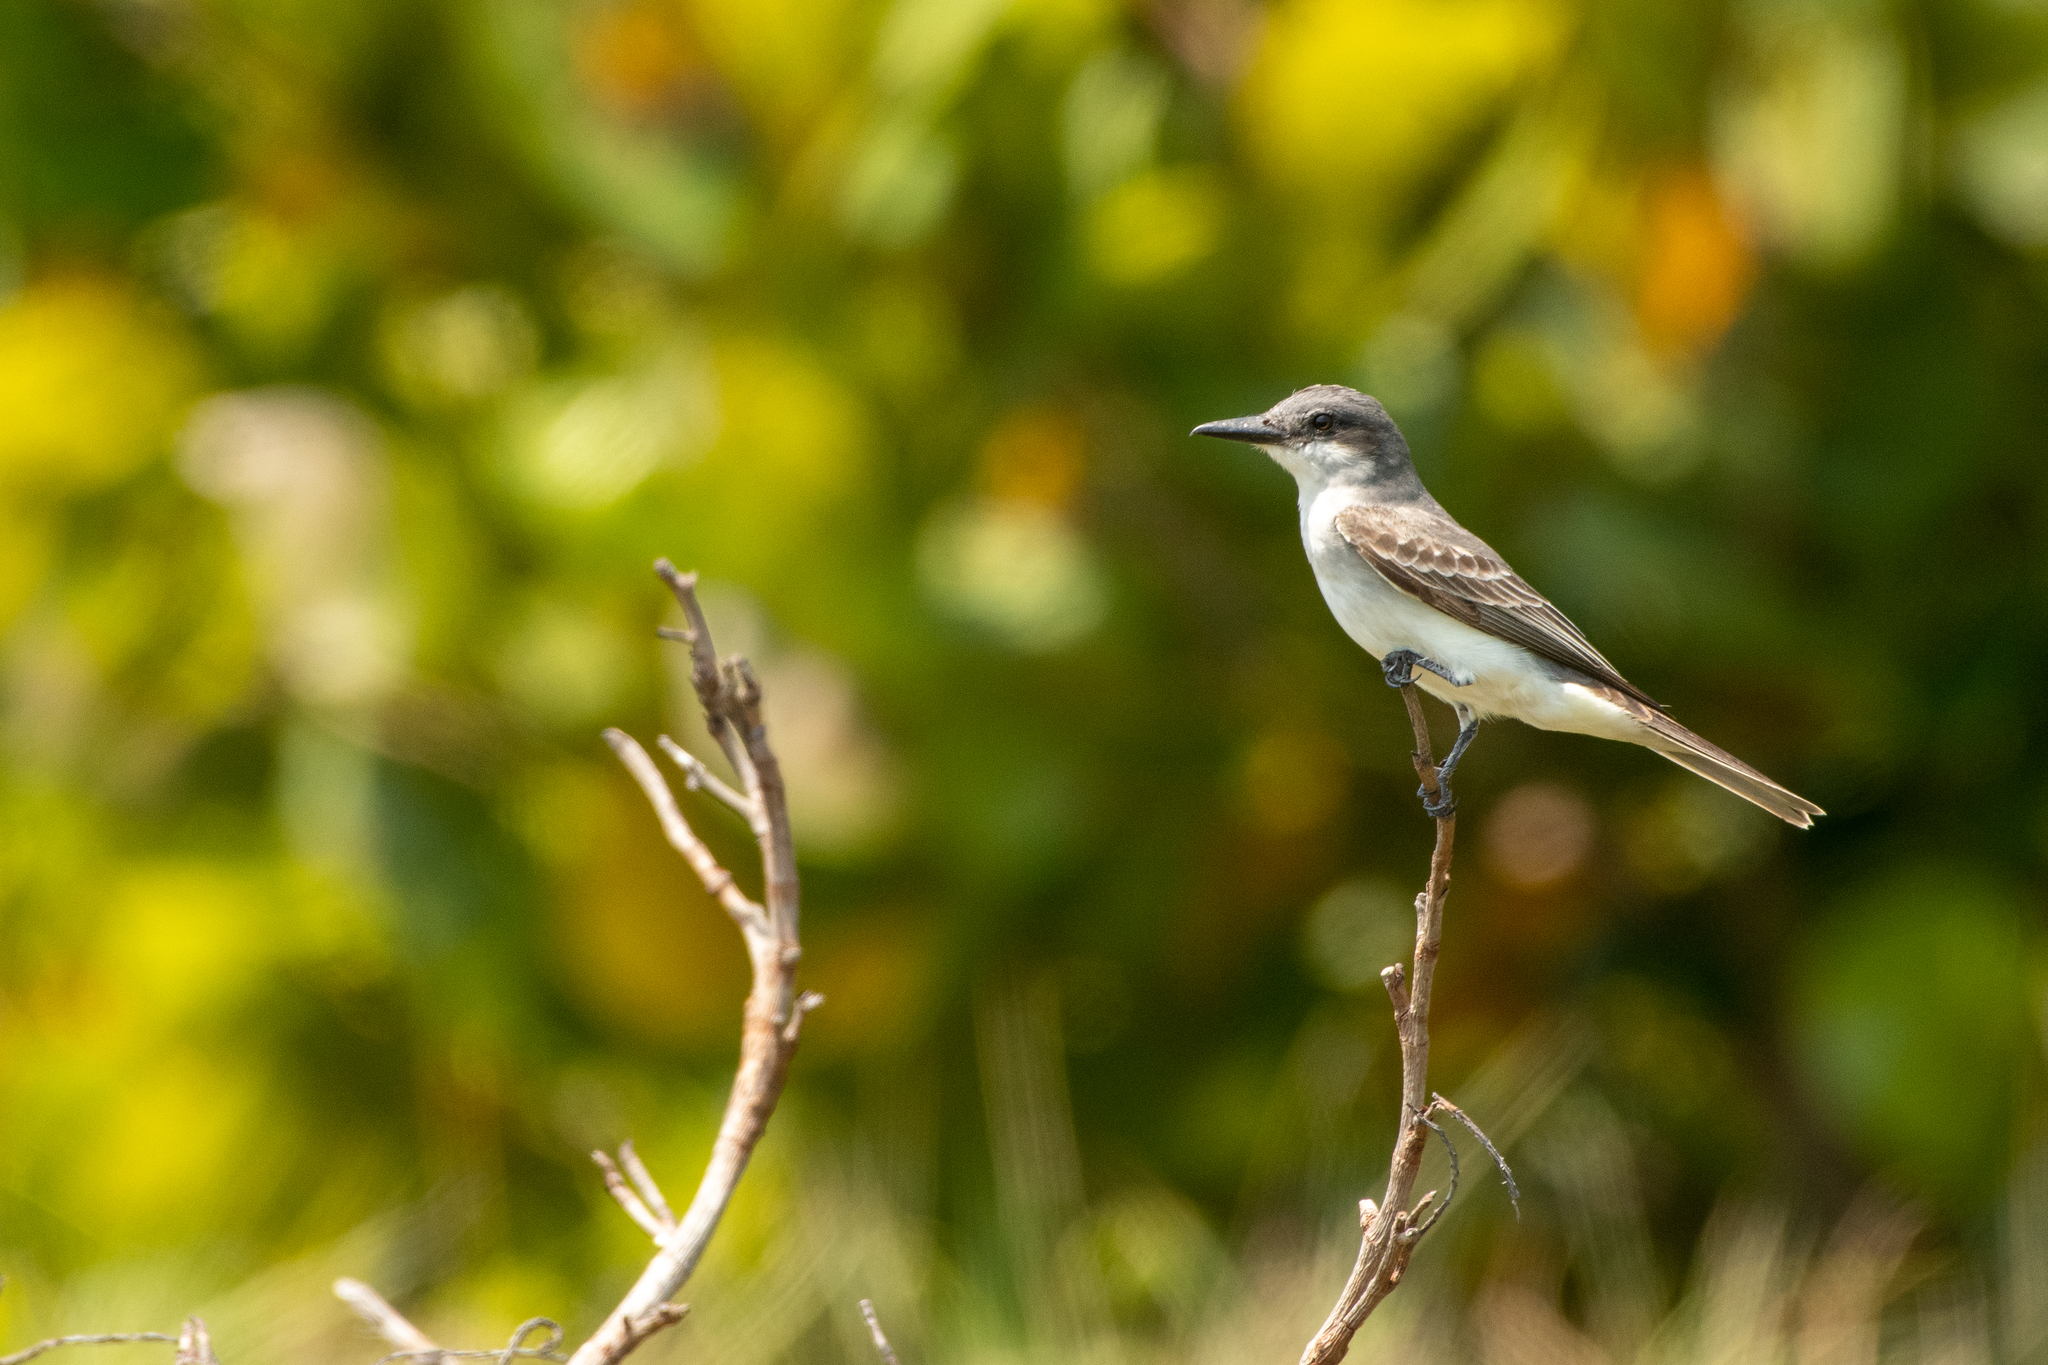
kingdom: Animalia
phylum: Chordata
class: Aves
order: Passeriformes
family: Tyrannidae
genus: Tyrannus
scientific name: Tyrannus dominicensis
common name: Gray kingbird
